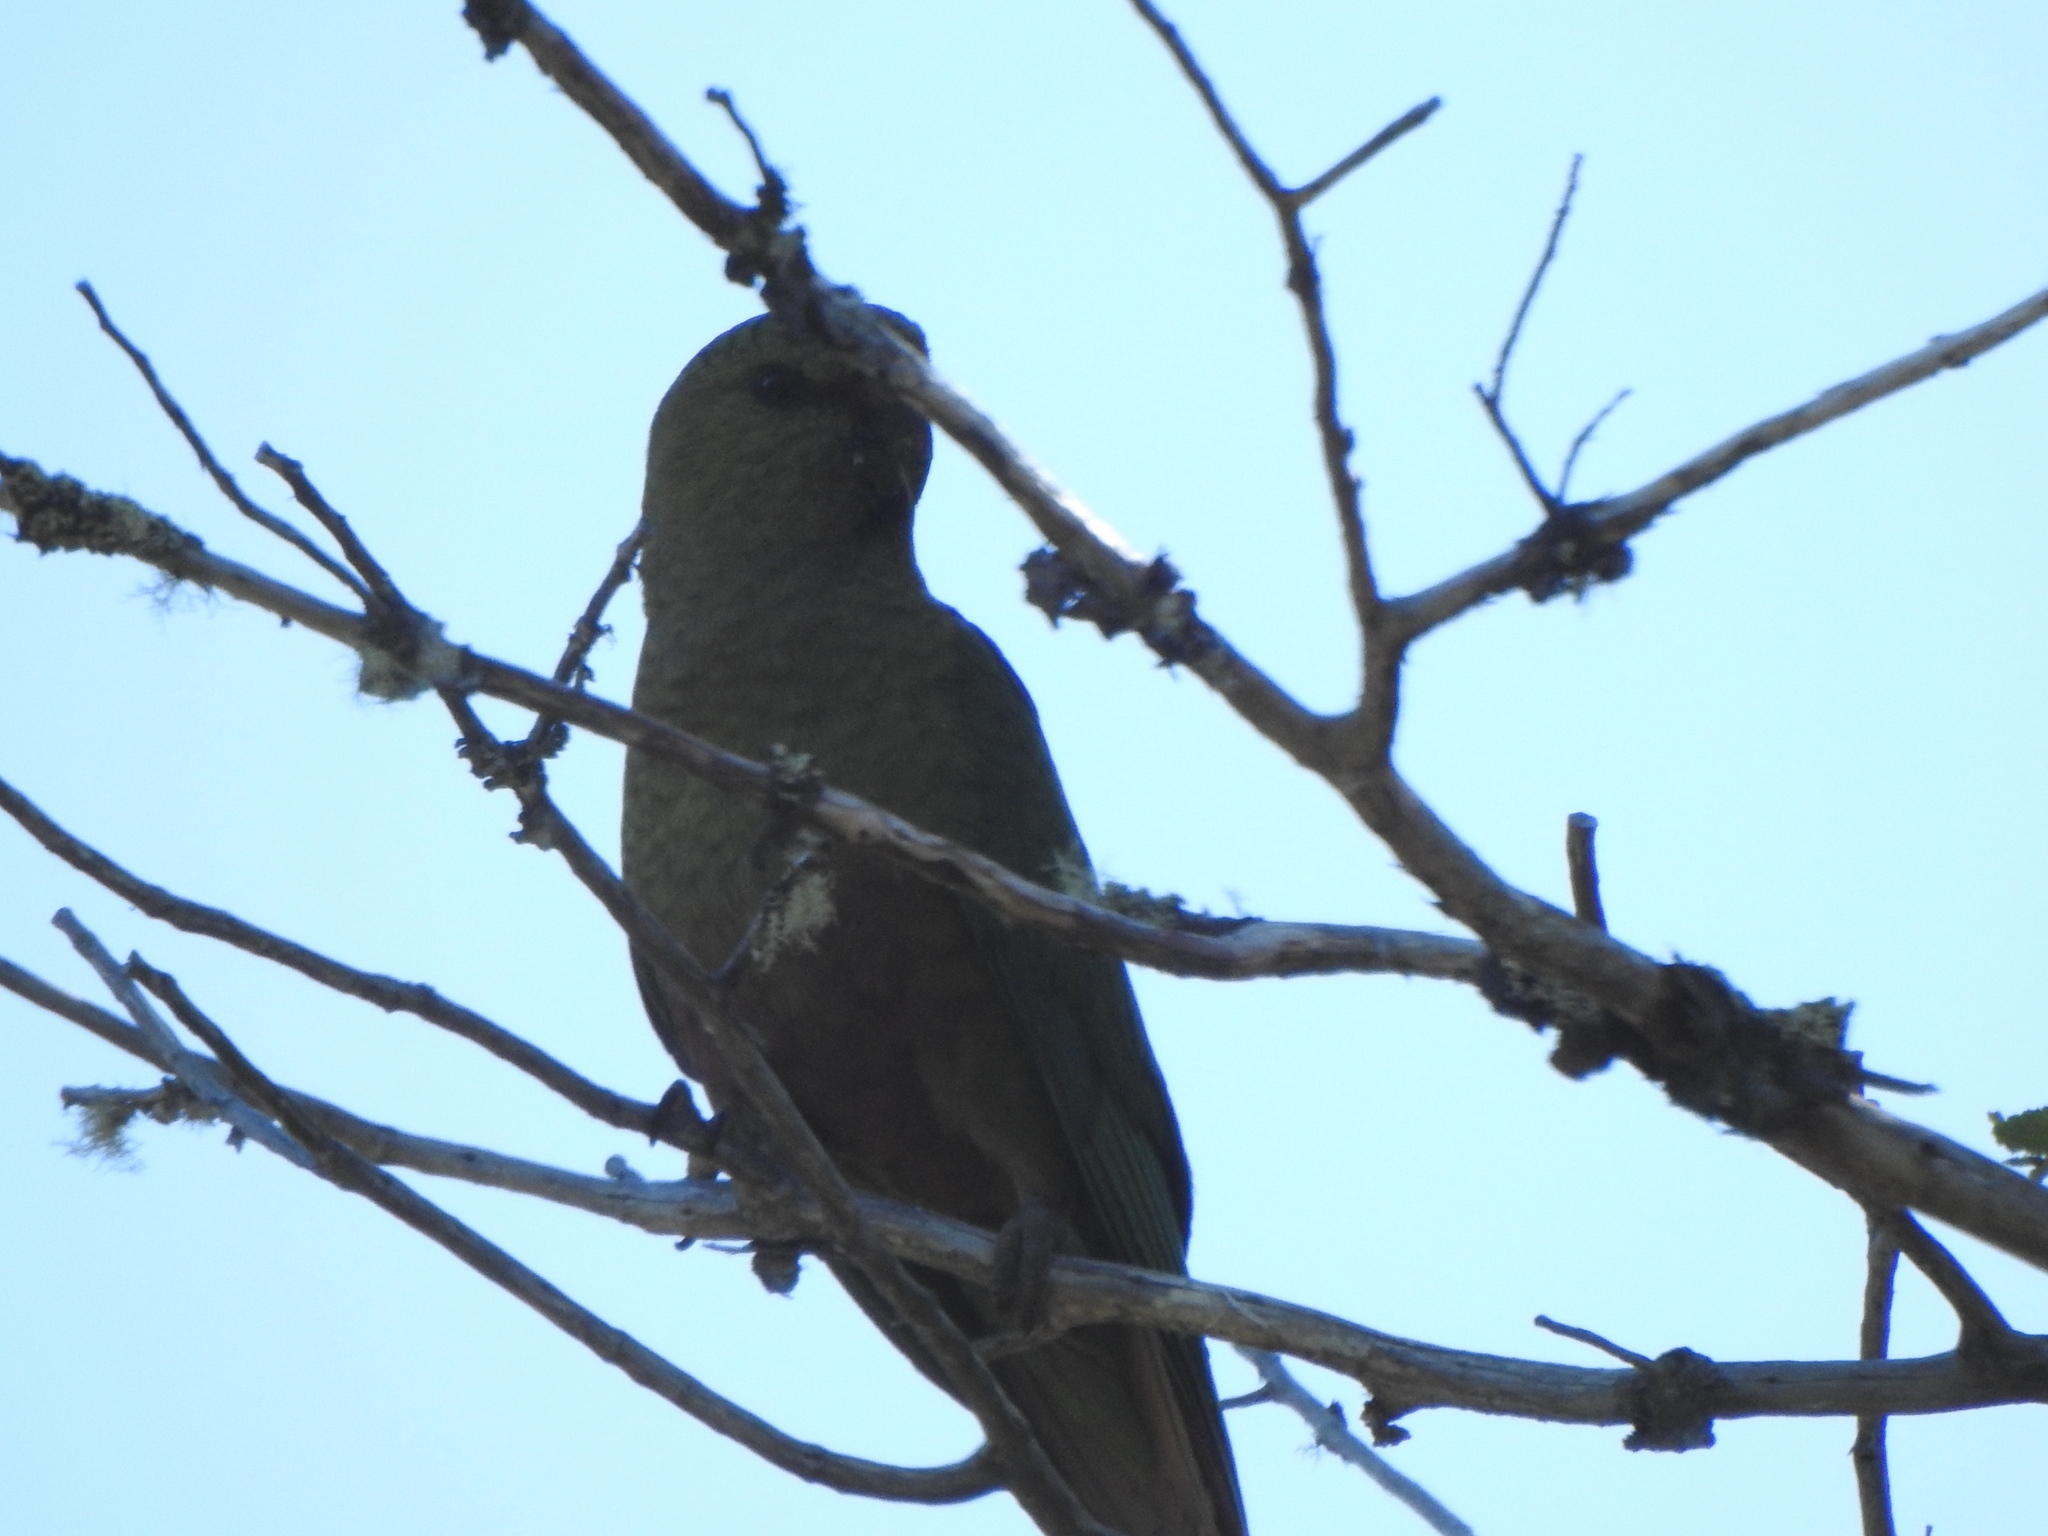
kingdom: Animalia
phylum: Chordata
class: Aves
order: Psittaciformes
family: Psittacidae
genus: Enicognathus
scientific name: Enicognathus ferrugineus
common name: Austral parakeet
